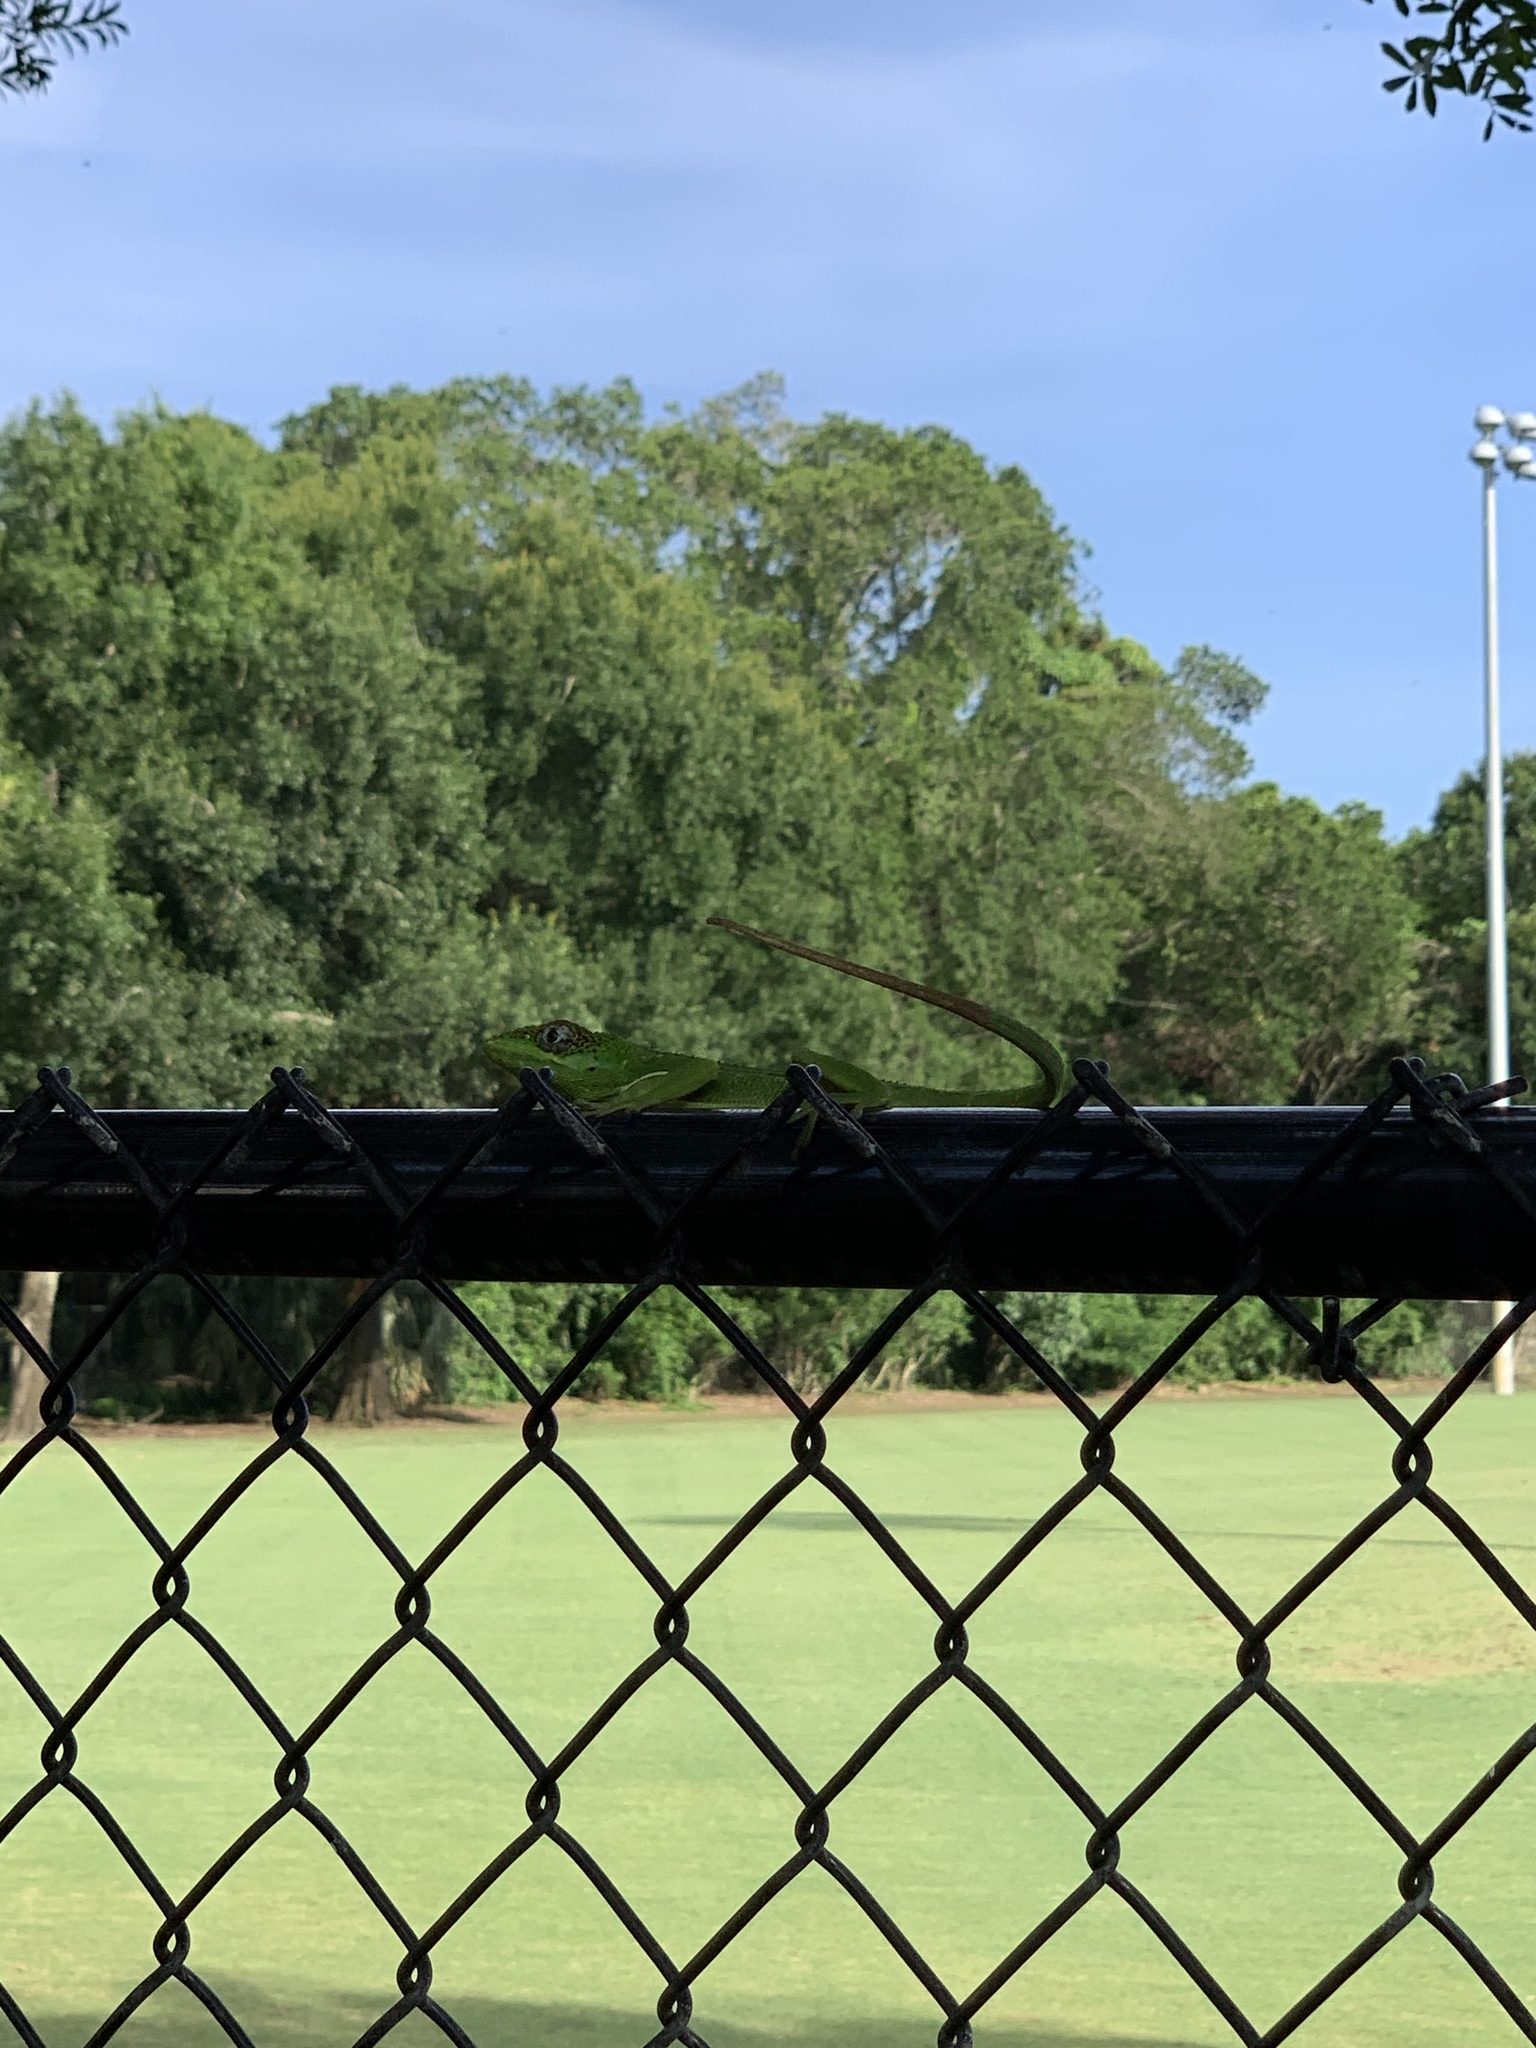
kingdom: Animalia
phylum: Chordata
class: Squamata
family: Dactyloidae
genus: Anolis
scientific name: Anolis equestris
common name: Knight anole
